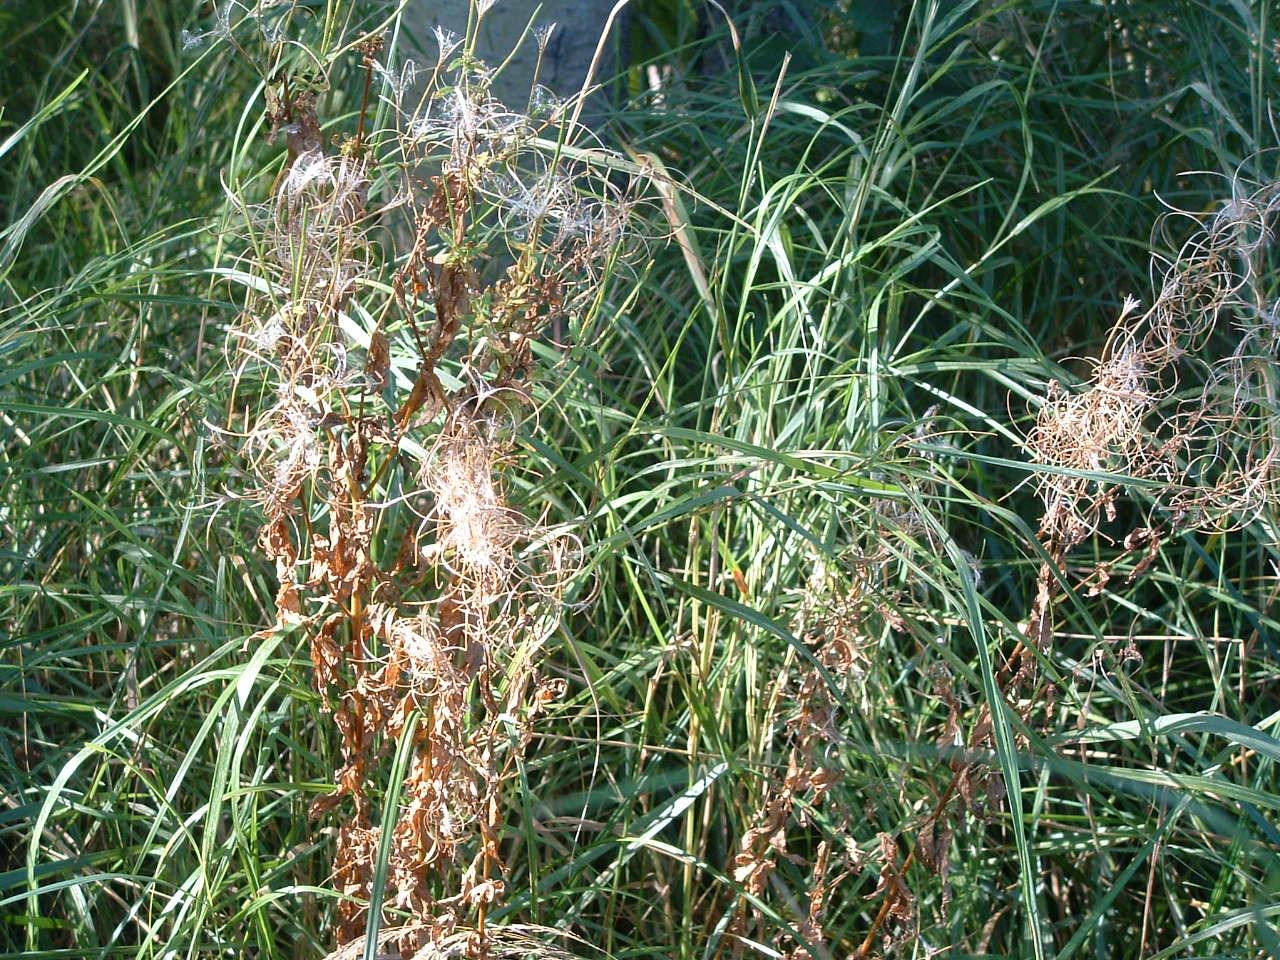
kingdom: Plantae
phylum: Tracheophyta
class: Magnoliopsida
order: Myrtales
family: Onagraceae
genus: Epilobium
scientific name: Epilobium ciliatum
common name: American willowherb
